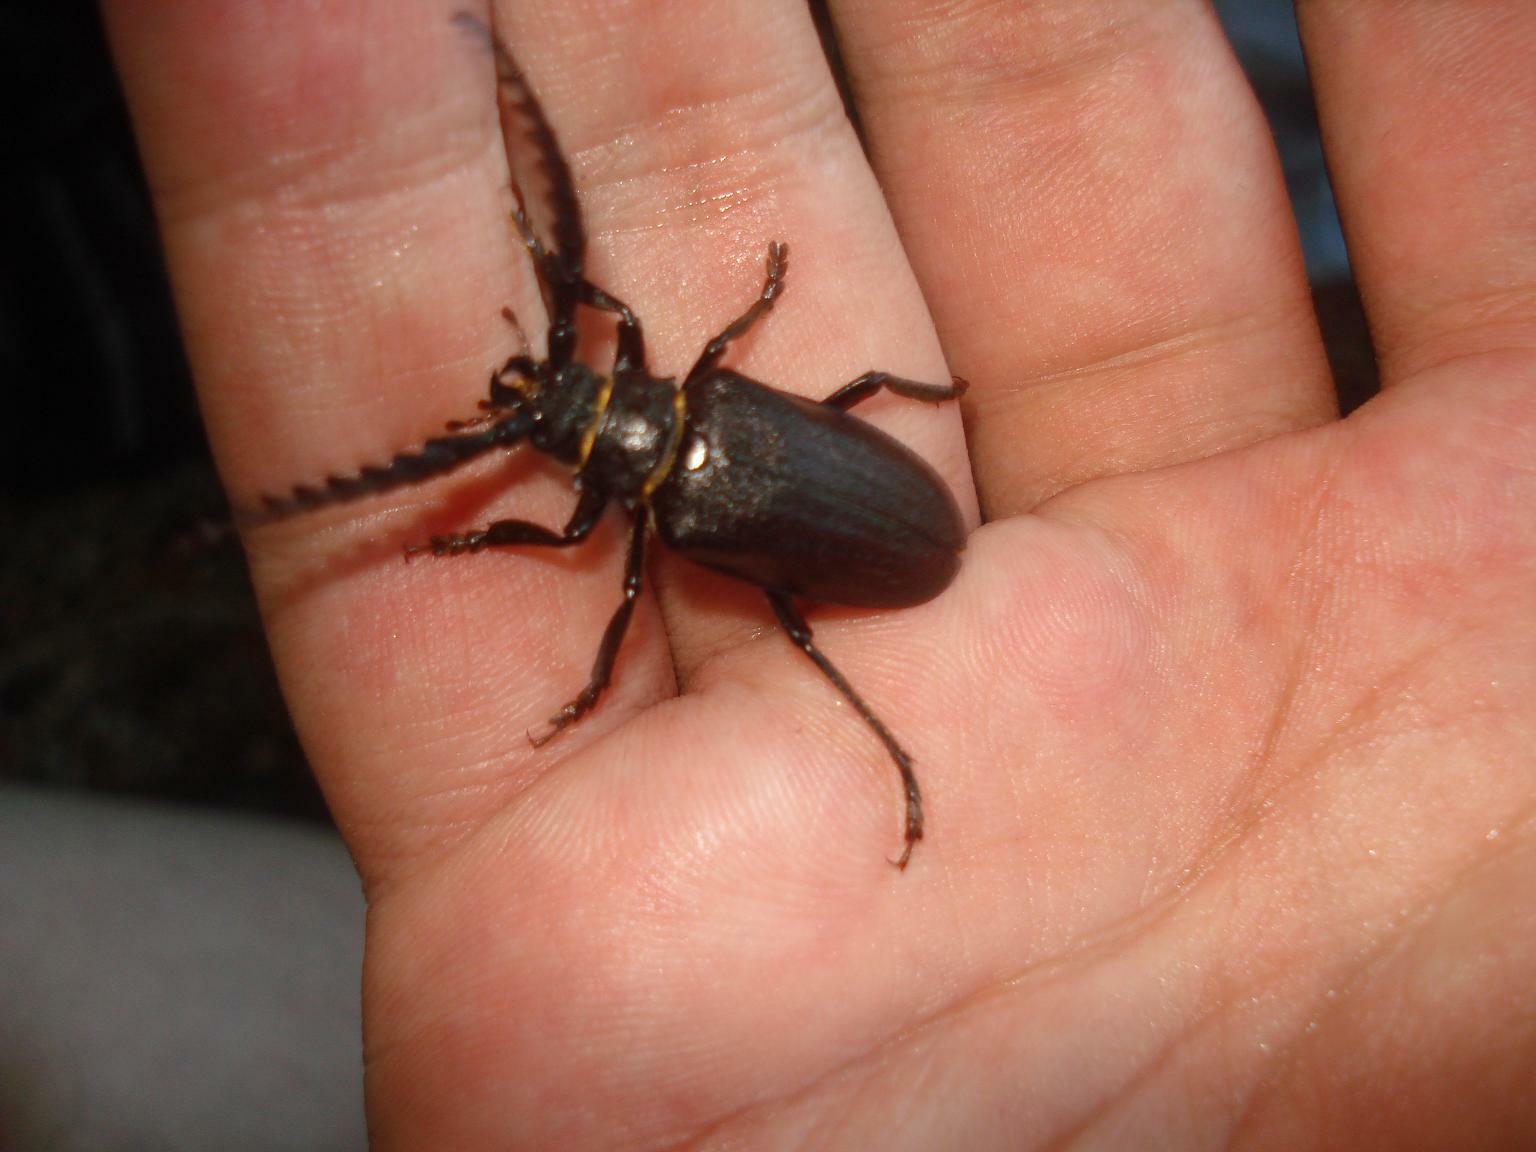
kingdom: Animalia
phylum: Arthropoda
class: Insecta
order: Coleoptera
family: Cerambycidae
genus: Prionus
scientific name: Prionus coriarius
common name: Tanner beetle
